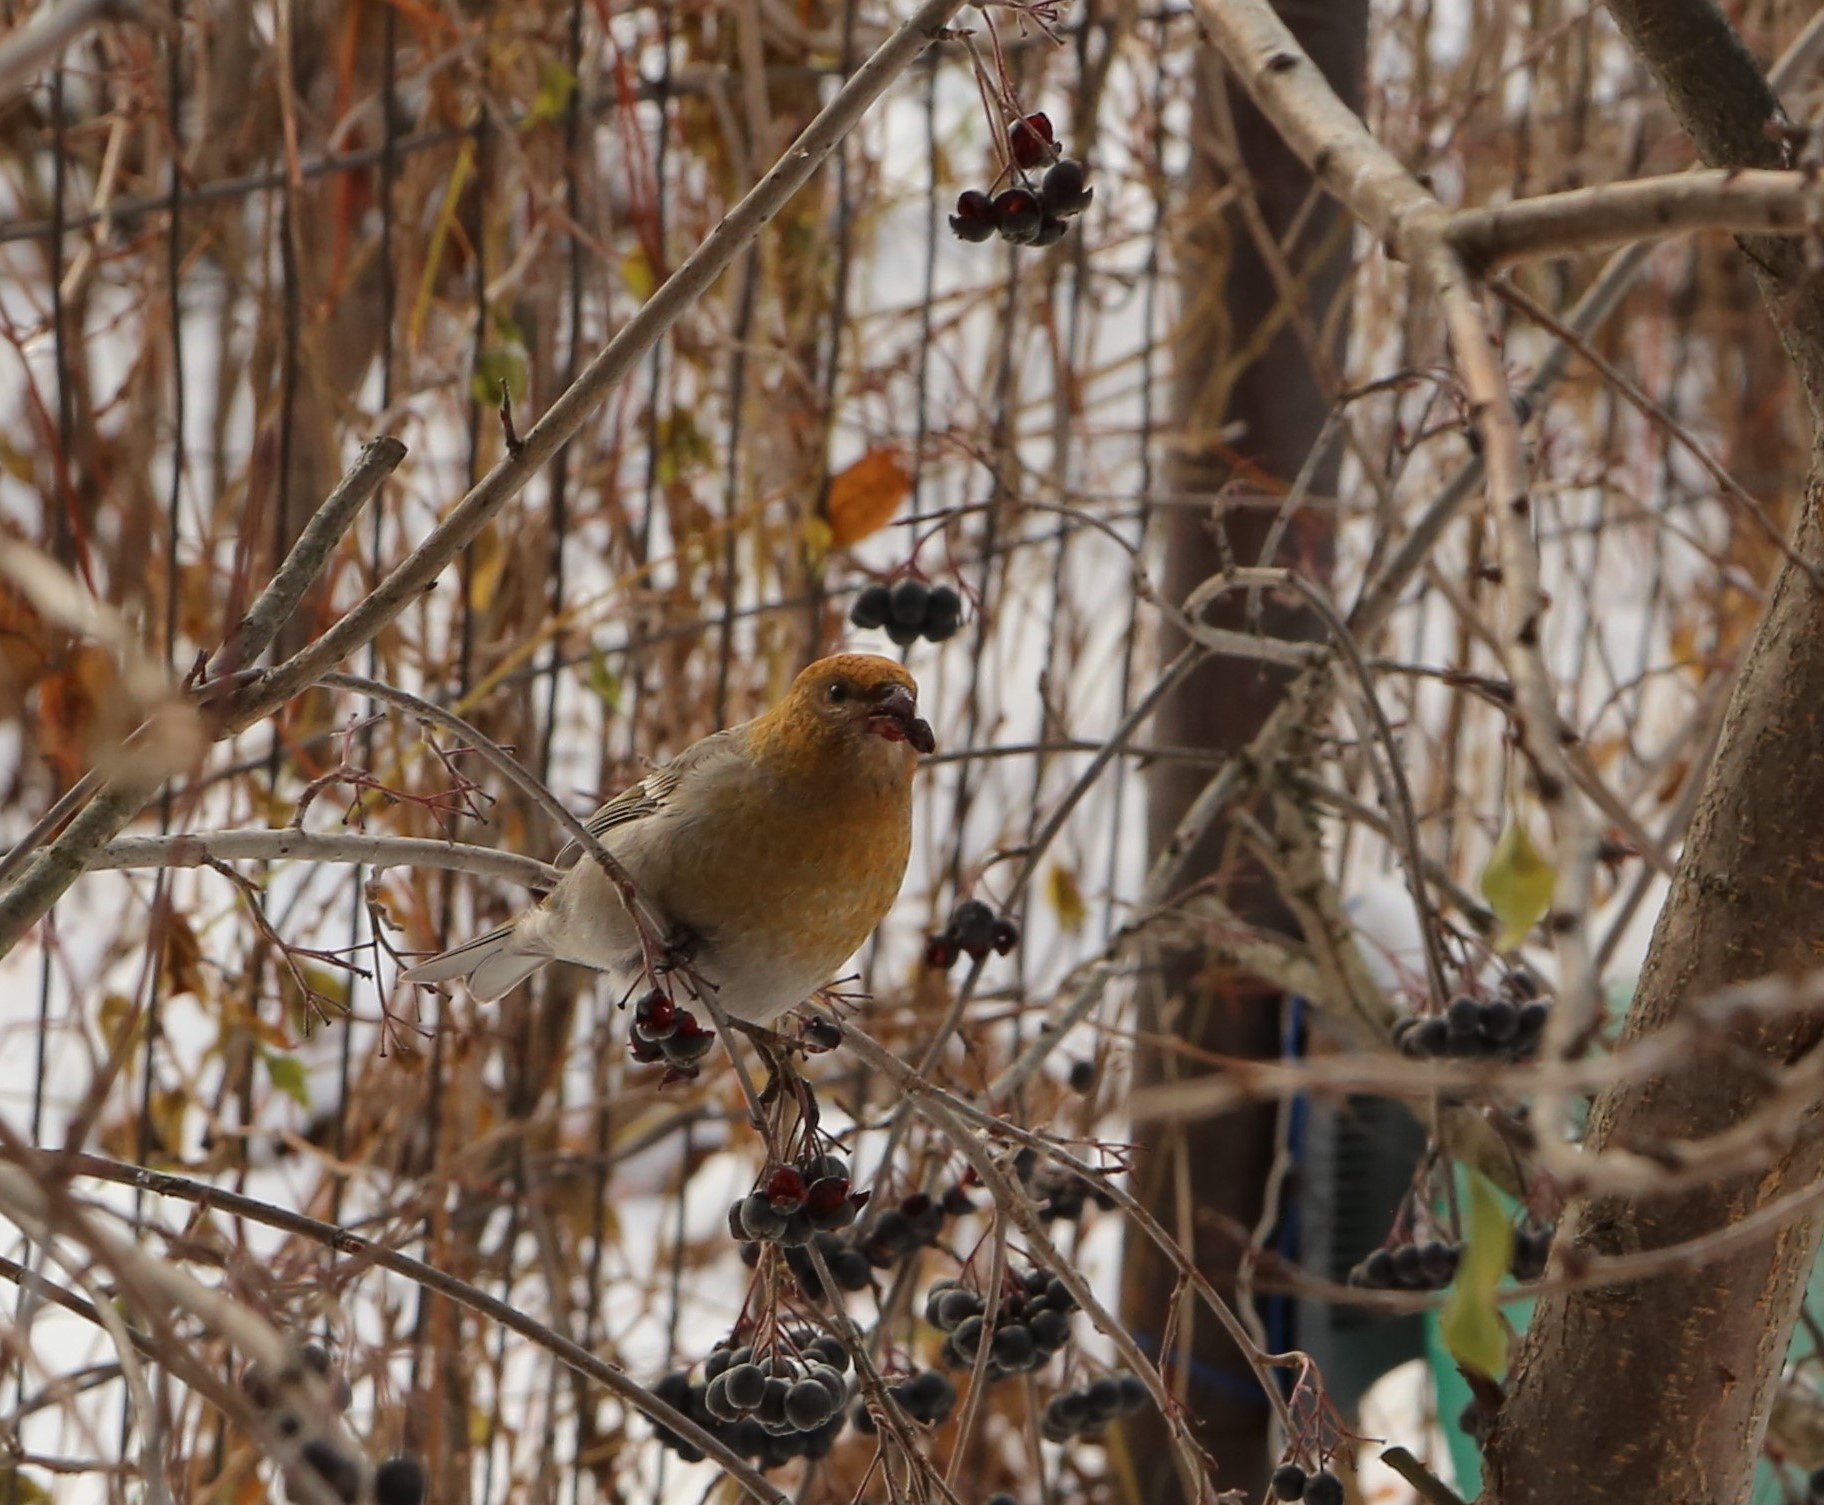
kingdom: Animalia
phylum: Chordata
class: Aves
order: Passeriformes
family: Fringillidae
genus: Pinicola
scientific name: Pinicola enucleator
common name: Pine grosbeak
